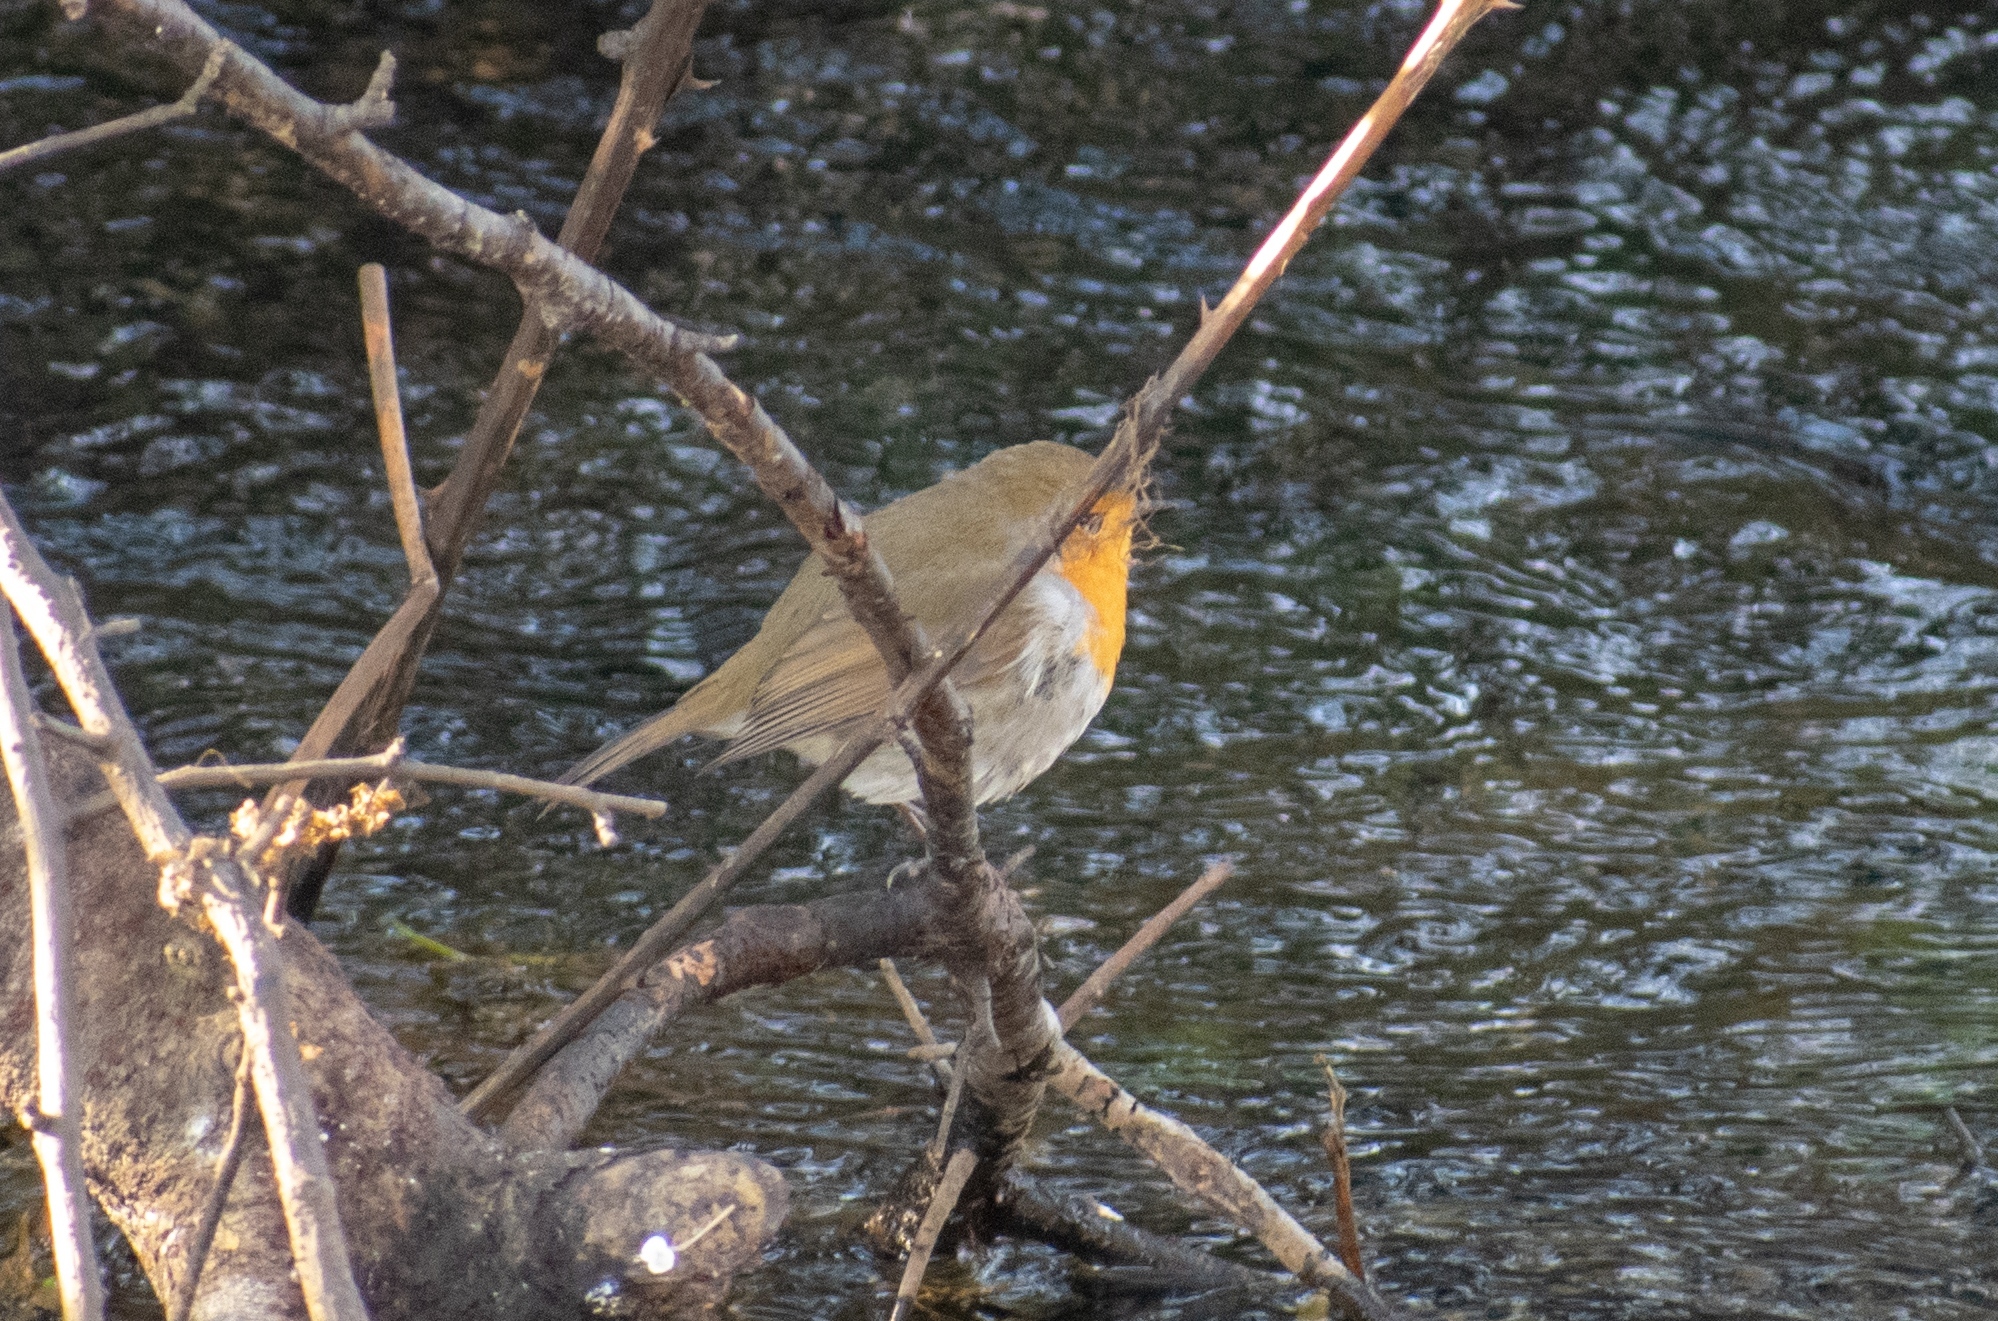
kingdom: Animalia
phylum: Chordata
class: Aves
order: Passeriformes
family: Muscicapidae
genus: Erithacus
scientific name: Erithacus rubecula
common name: European robin
